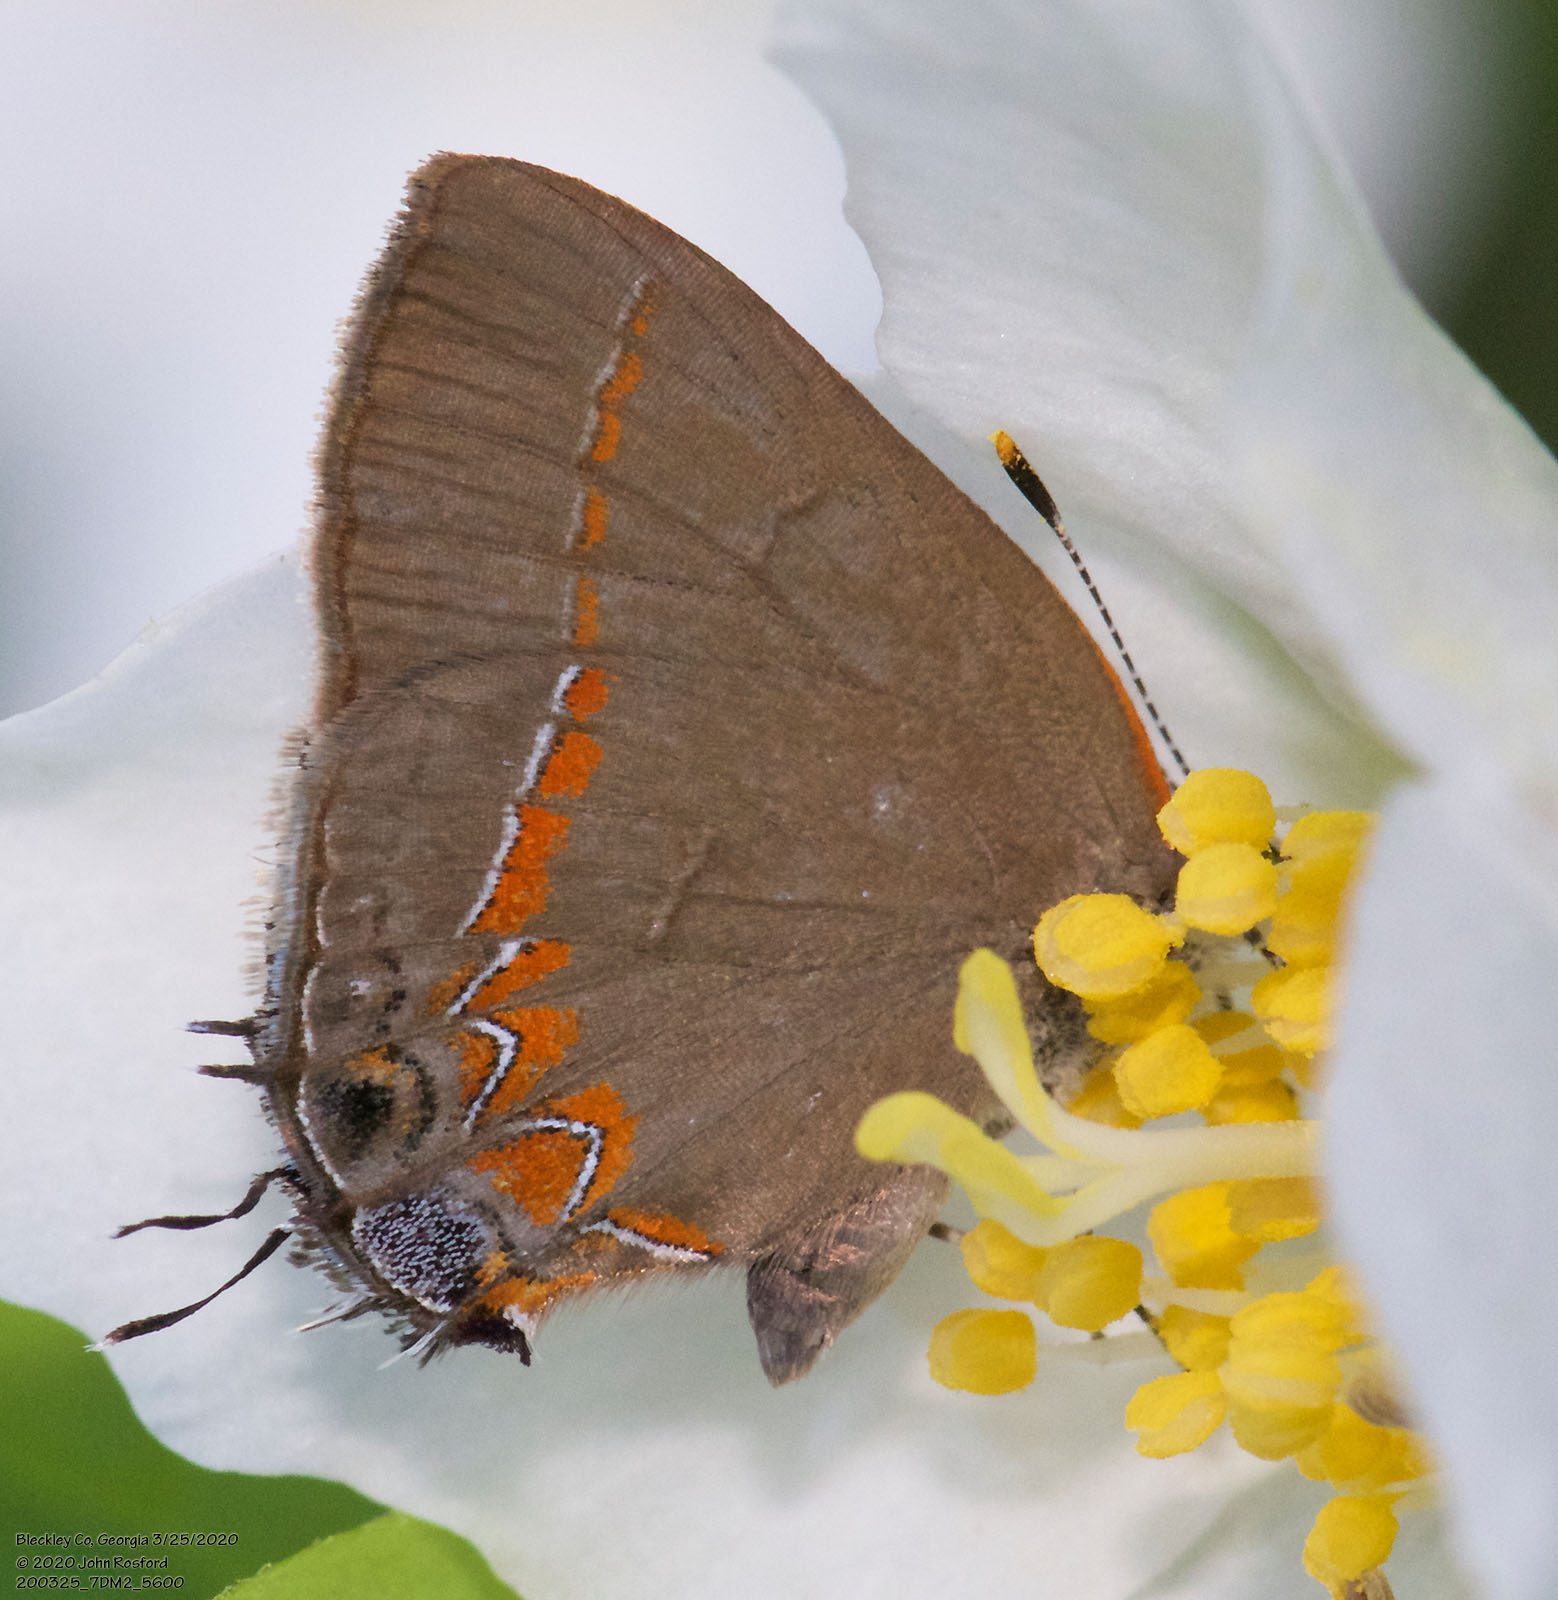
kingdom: Animalia
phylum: Arthropoda
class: Insecta
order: Lepidoptera
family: Lycaenidae
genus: Calycopis
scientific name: Calycopis cecrops
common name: Red-banded hairstreak
